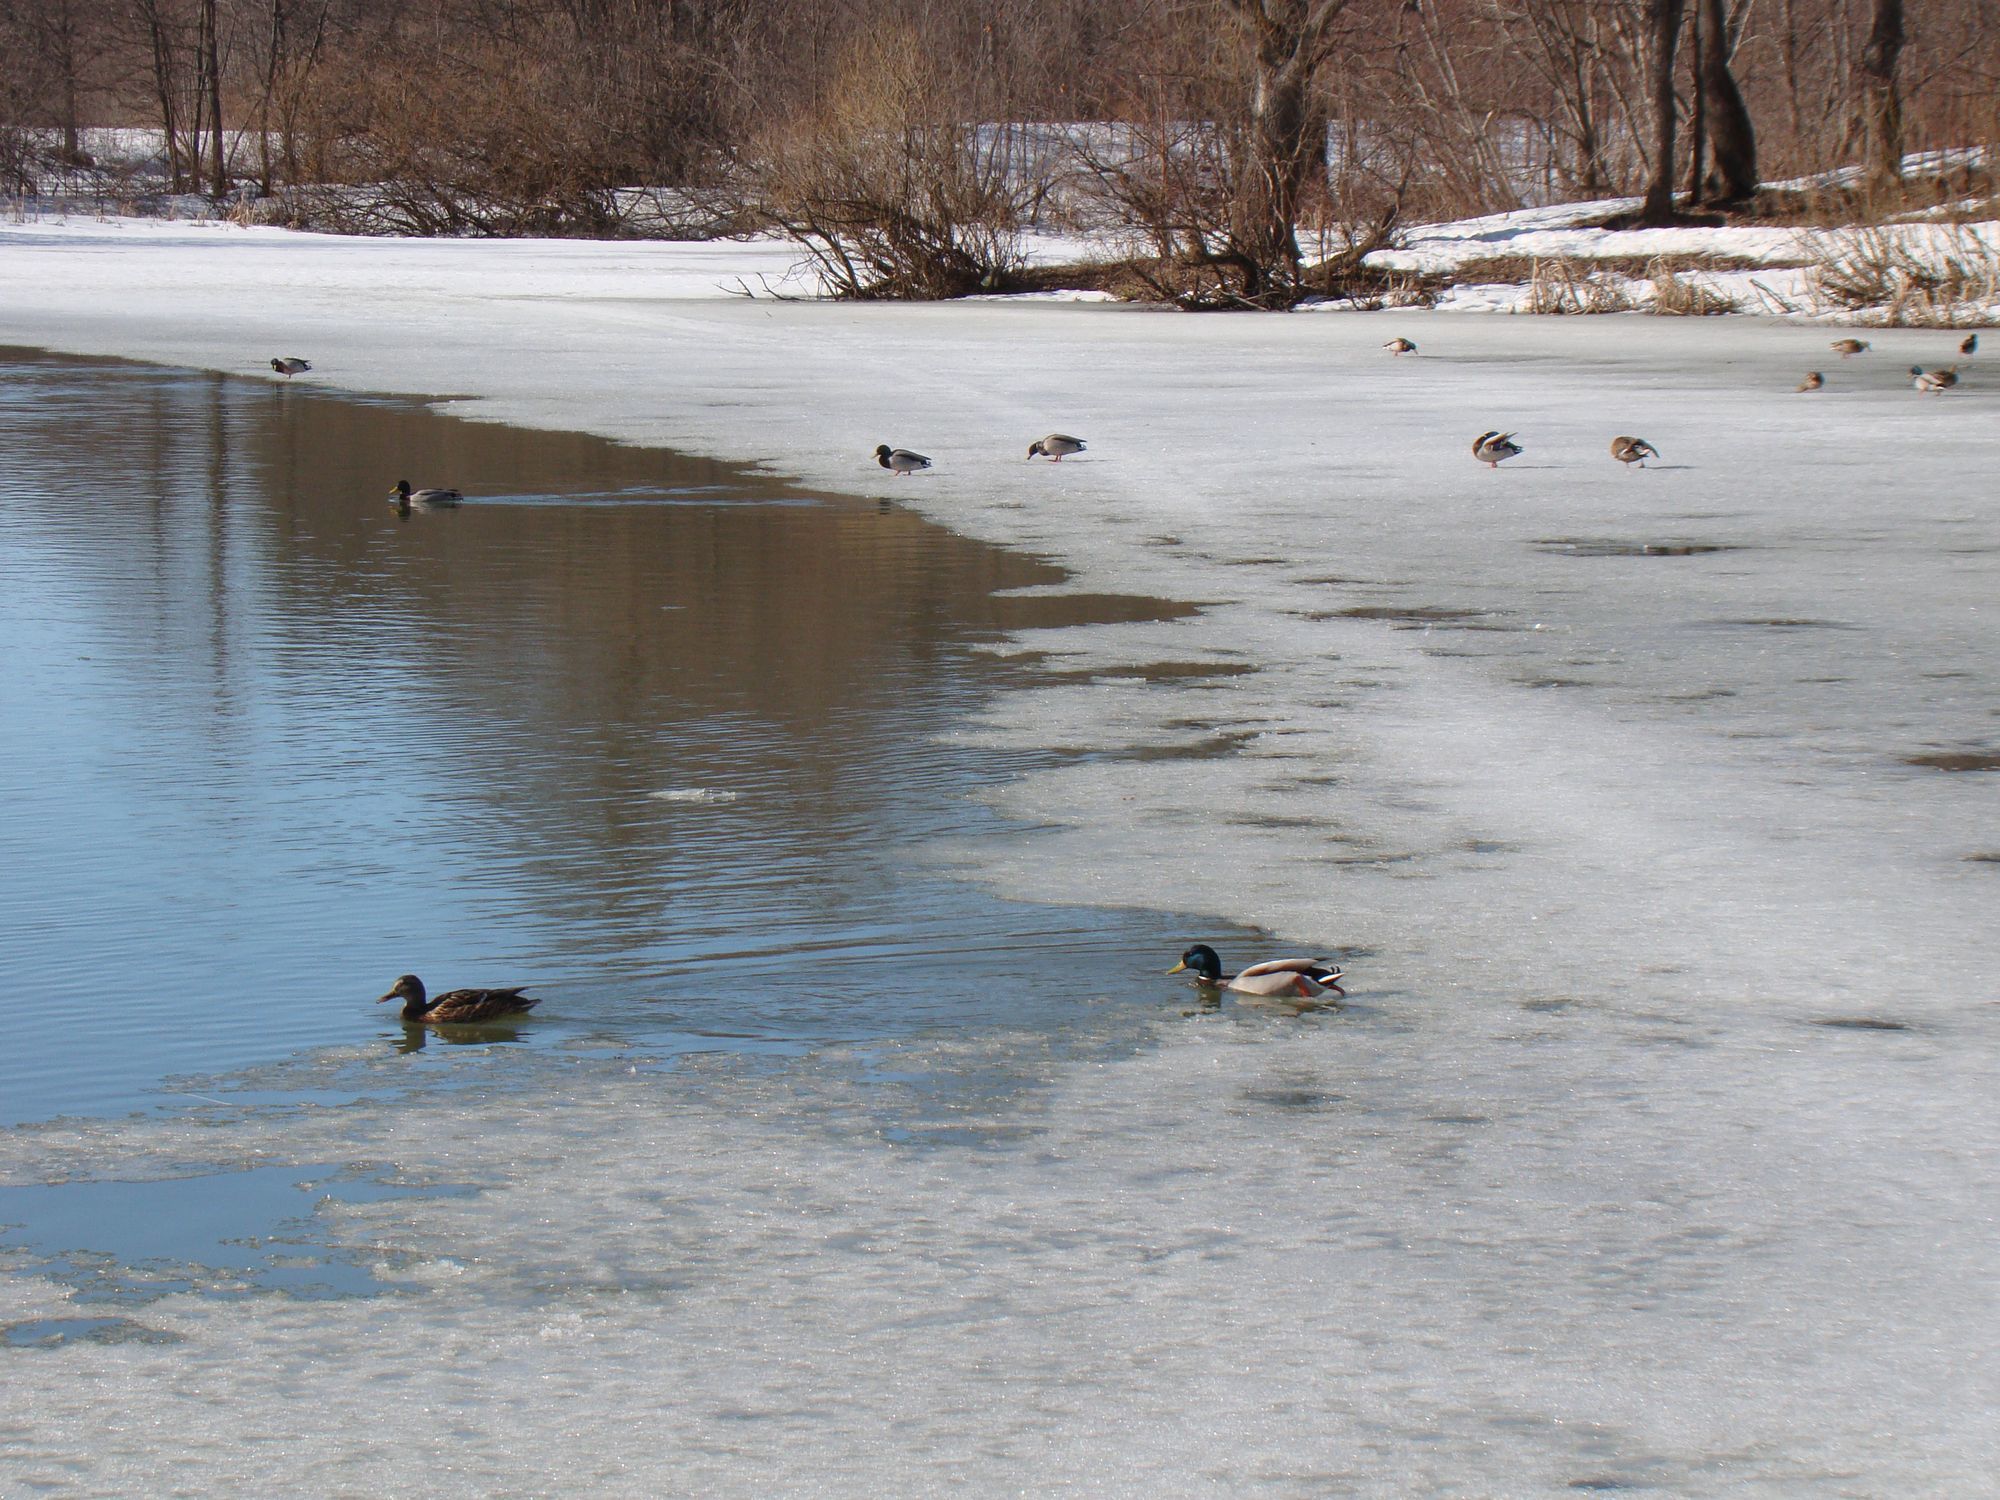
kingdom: Animalia
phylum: Chordata
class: Aves
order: Anseriformes
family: Anatidae
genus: Anas
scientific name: Anas platyrhynchos
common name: Mallard
